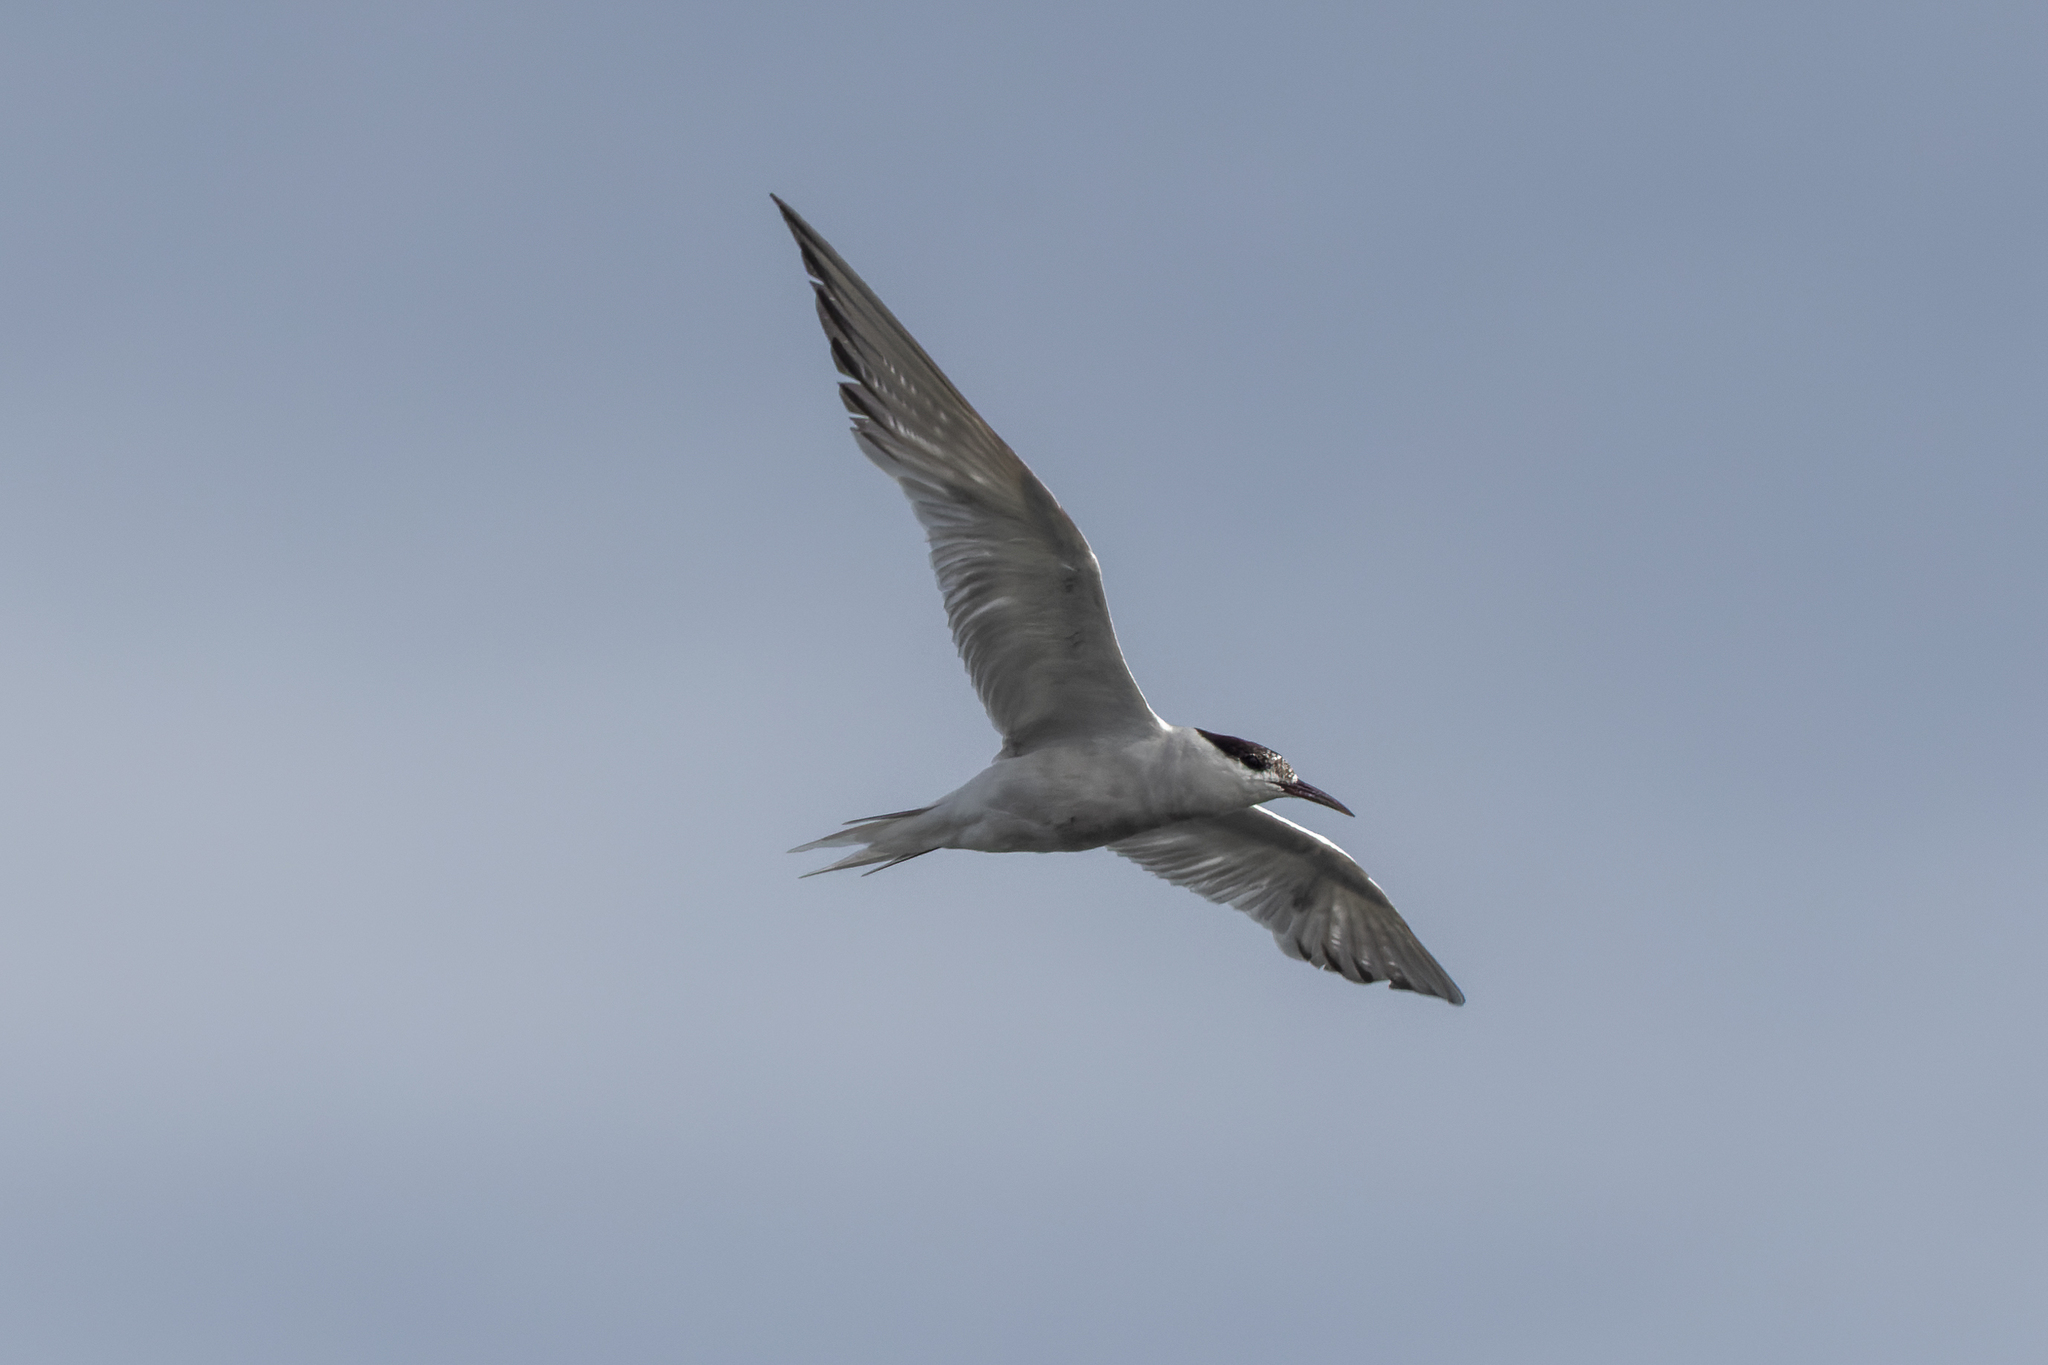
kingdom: Animalia
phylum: Chordata
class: Aves
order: Charadriiformes
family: Laridae
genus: Sterna
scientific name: Sterna hirundo
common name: Common tern
